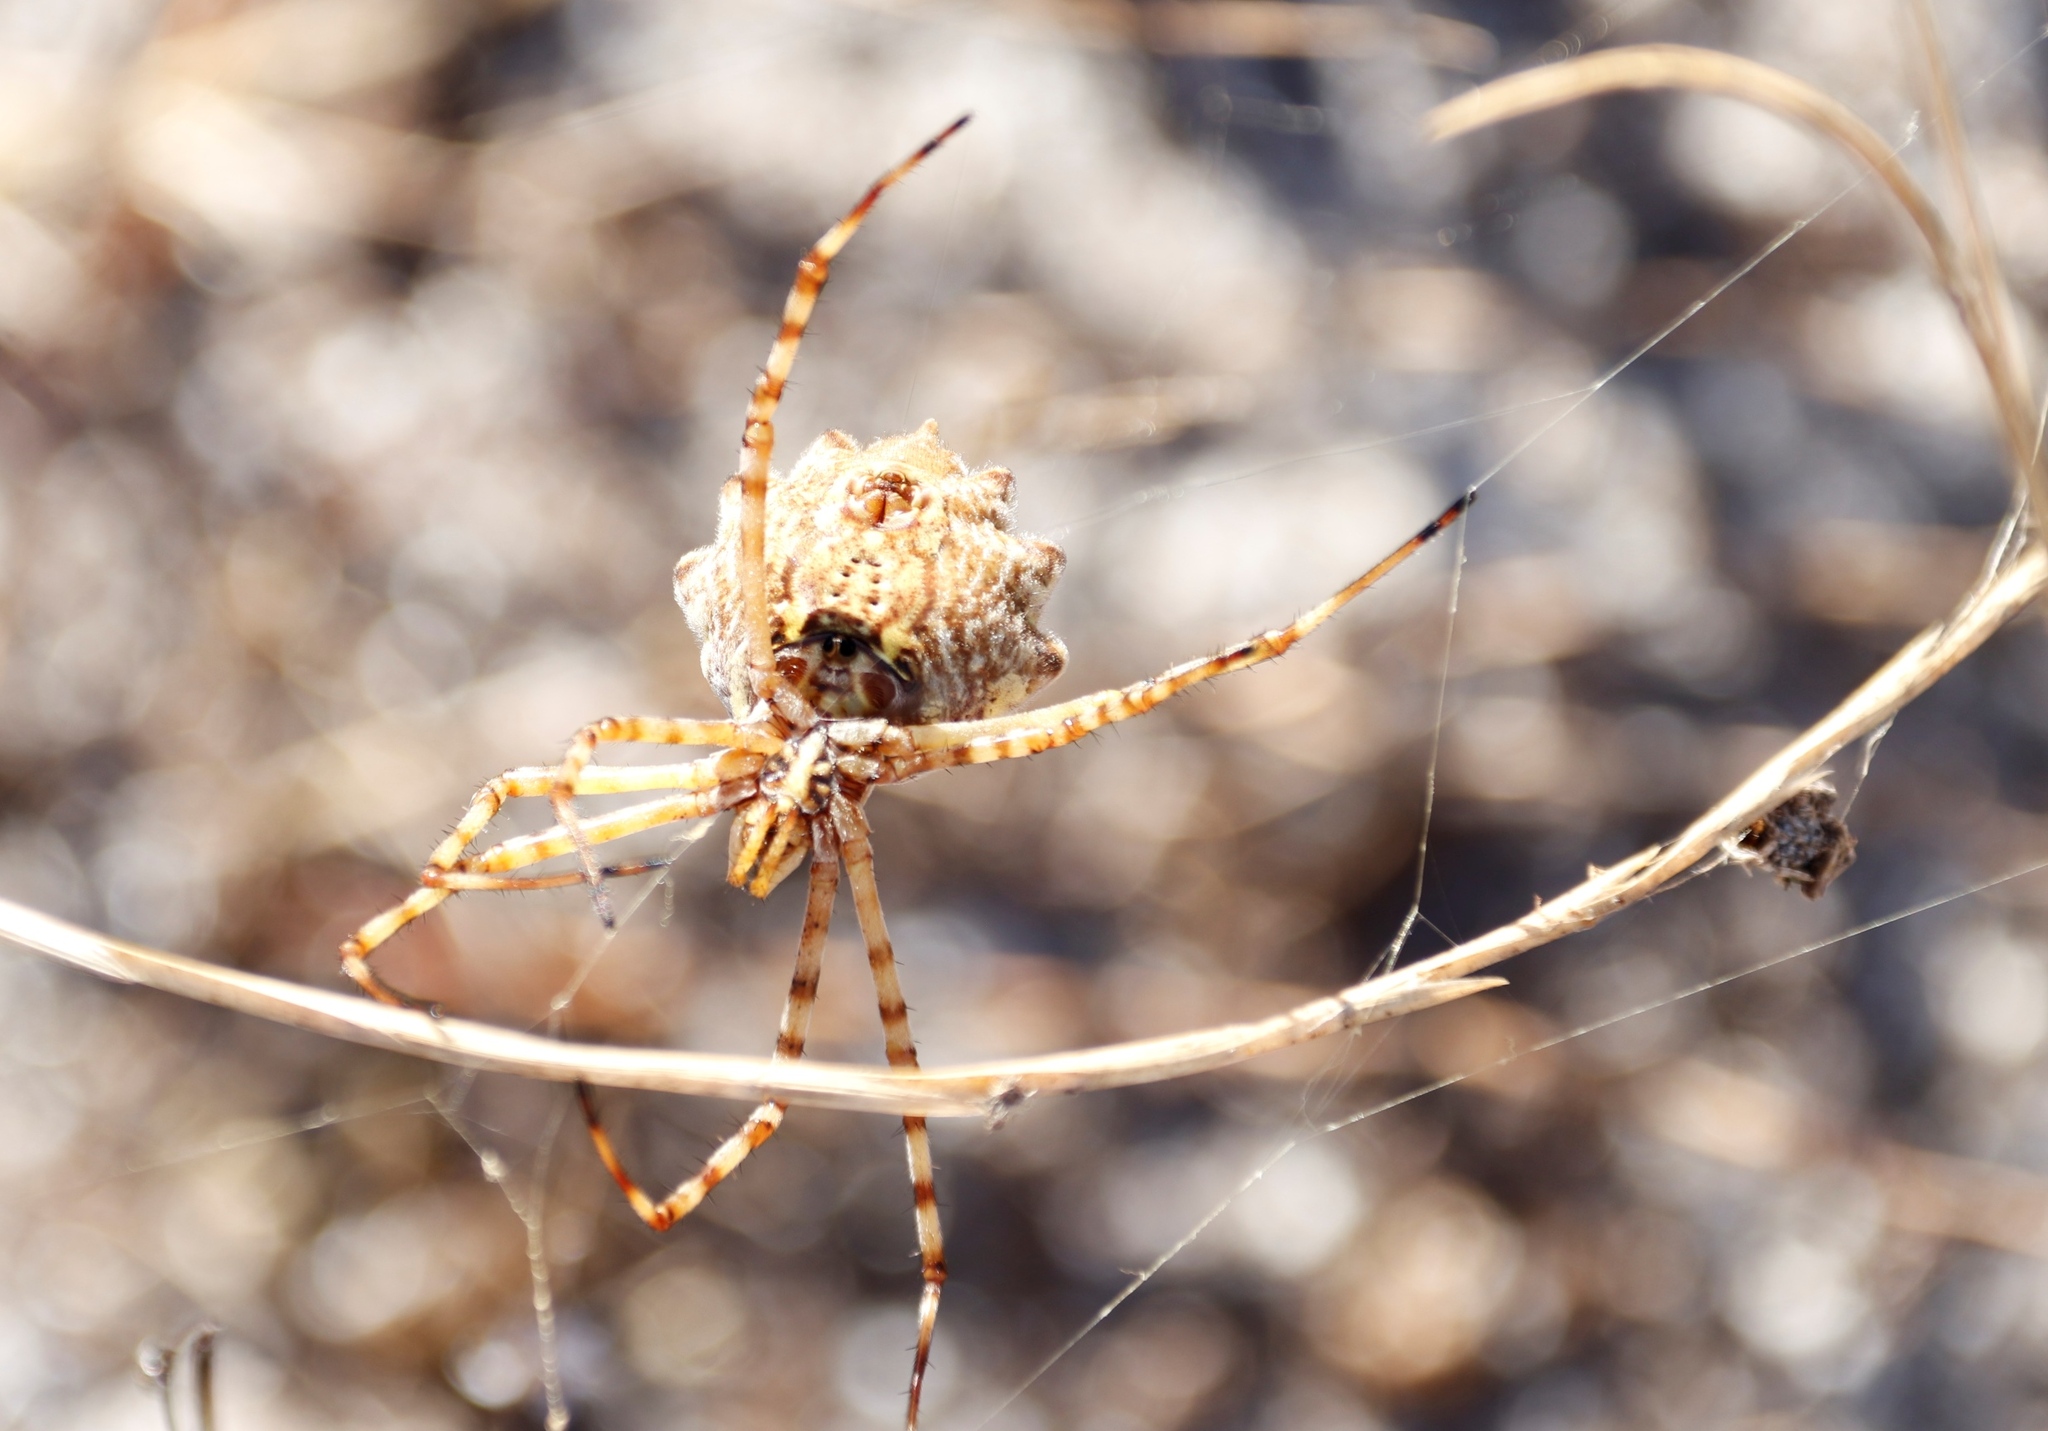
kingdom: Animalia
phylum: Arthropoda
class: Arachnida
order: Araneae
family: Araneidae
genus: Argiope
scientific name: Argiope australis
